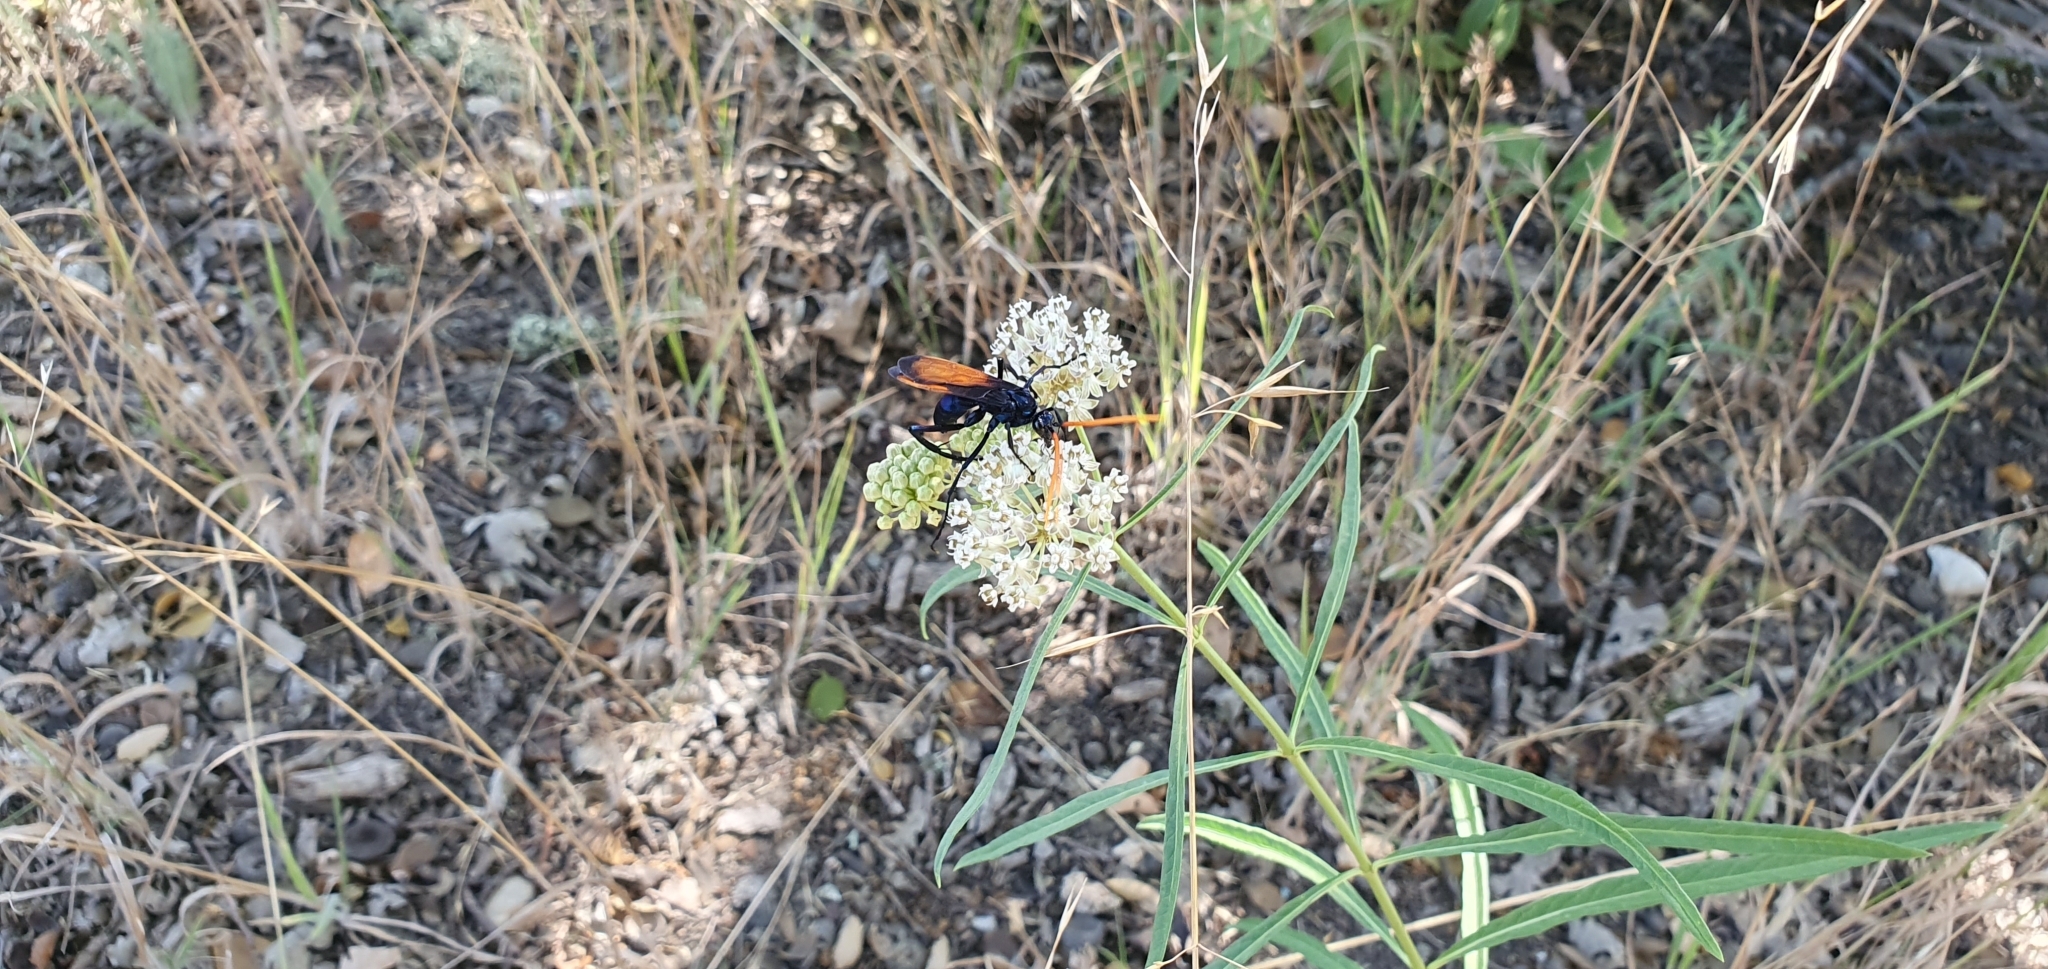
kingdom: Animalia
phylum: Arthropoda
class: Insecta
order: Hymenoptera
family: Pompilidae
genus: Pepsis
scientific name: Pepsis mildei
